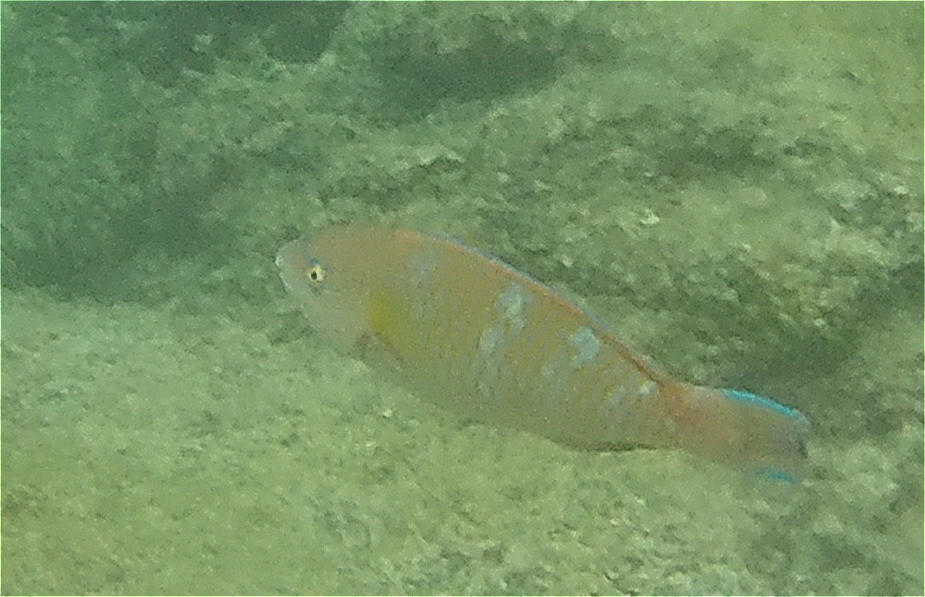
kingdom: Animalia
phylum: Chordata
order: Perciformes
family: Scaridae
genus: Scarus
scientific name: Scarus ghobban
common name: Blue-barred parrotfish
